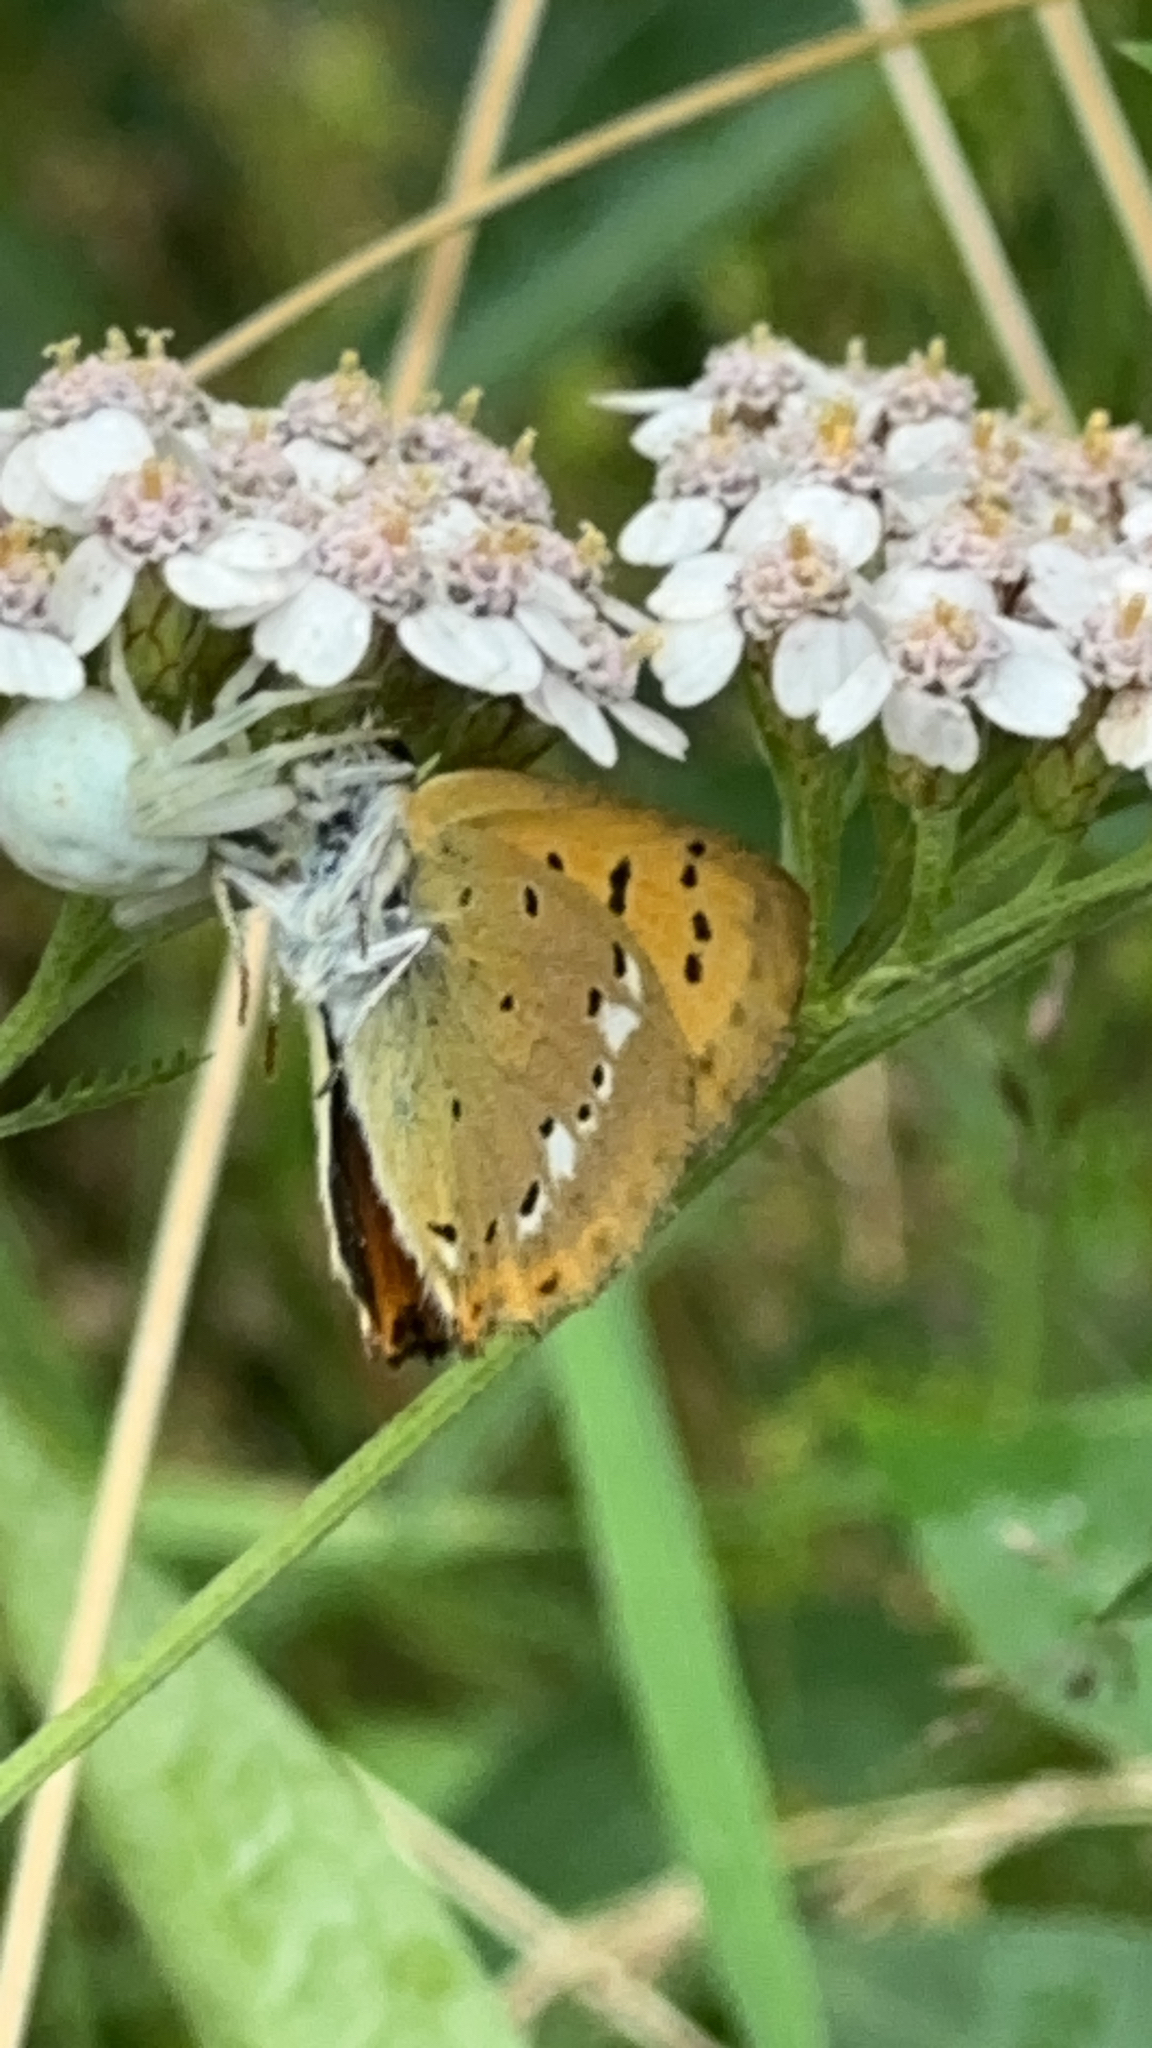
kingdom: Animalia
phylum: Arthropoda
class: Insecta
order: Lepidoptera
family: Lycaenidae
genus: Lycaena
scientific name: Lycaena virgaureae
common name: Scarce copper
